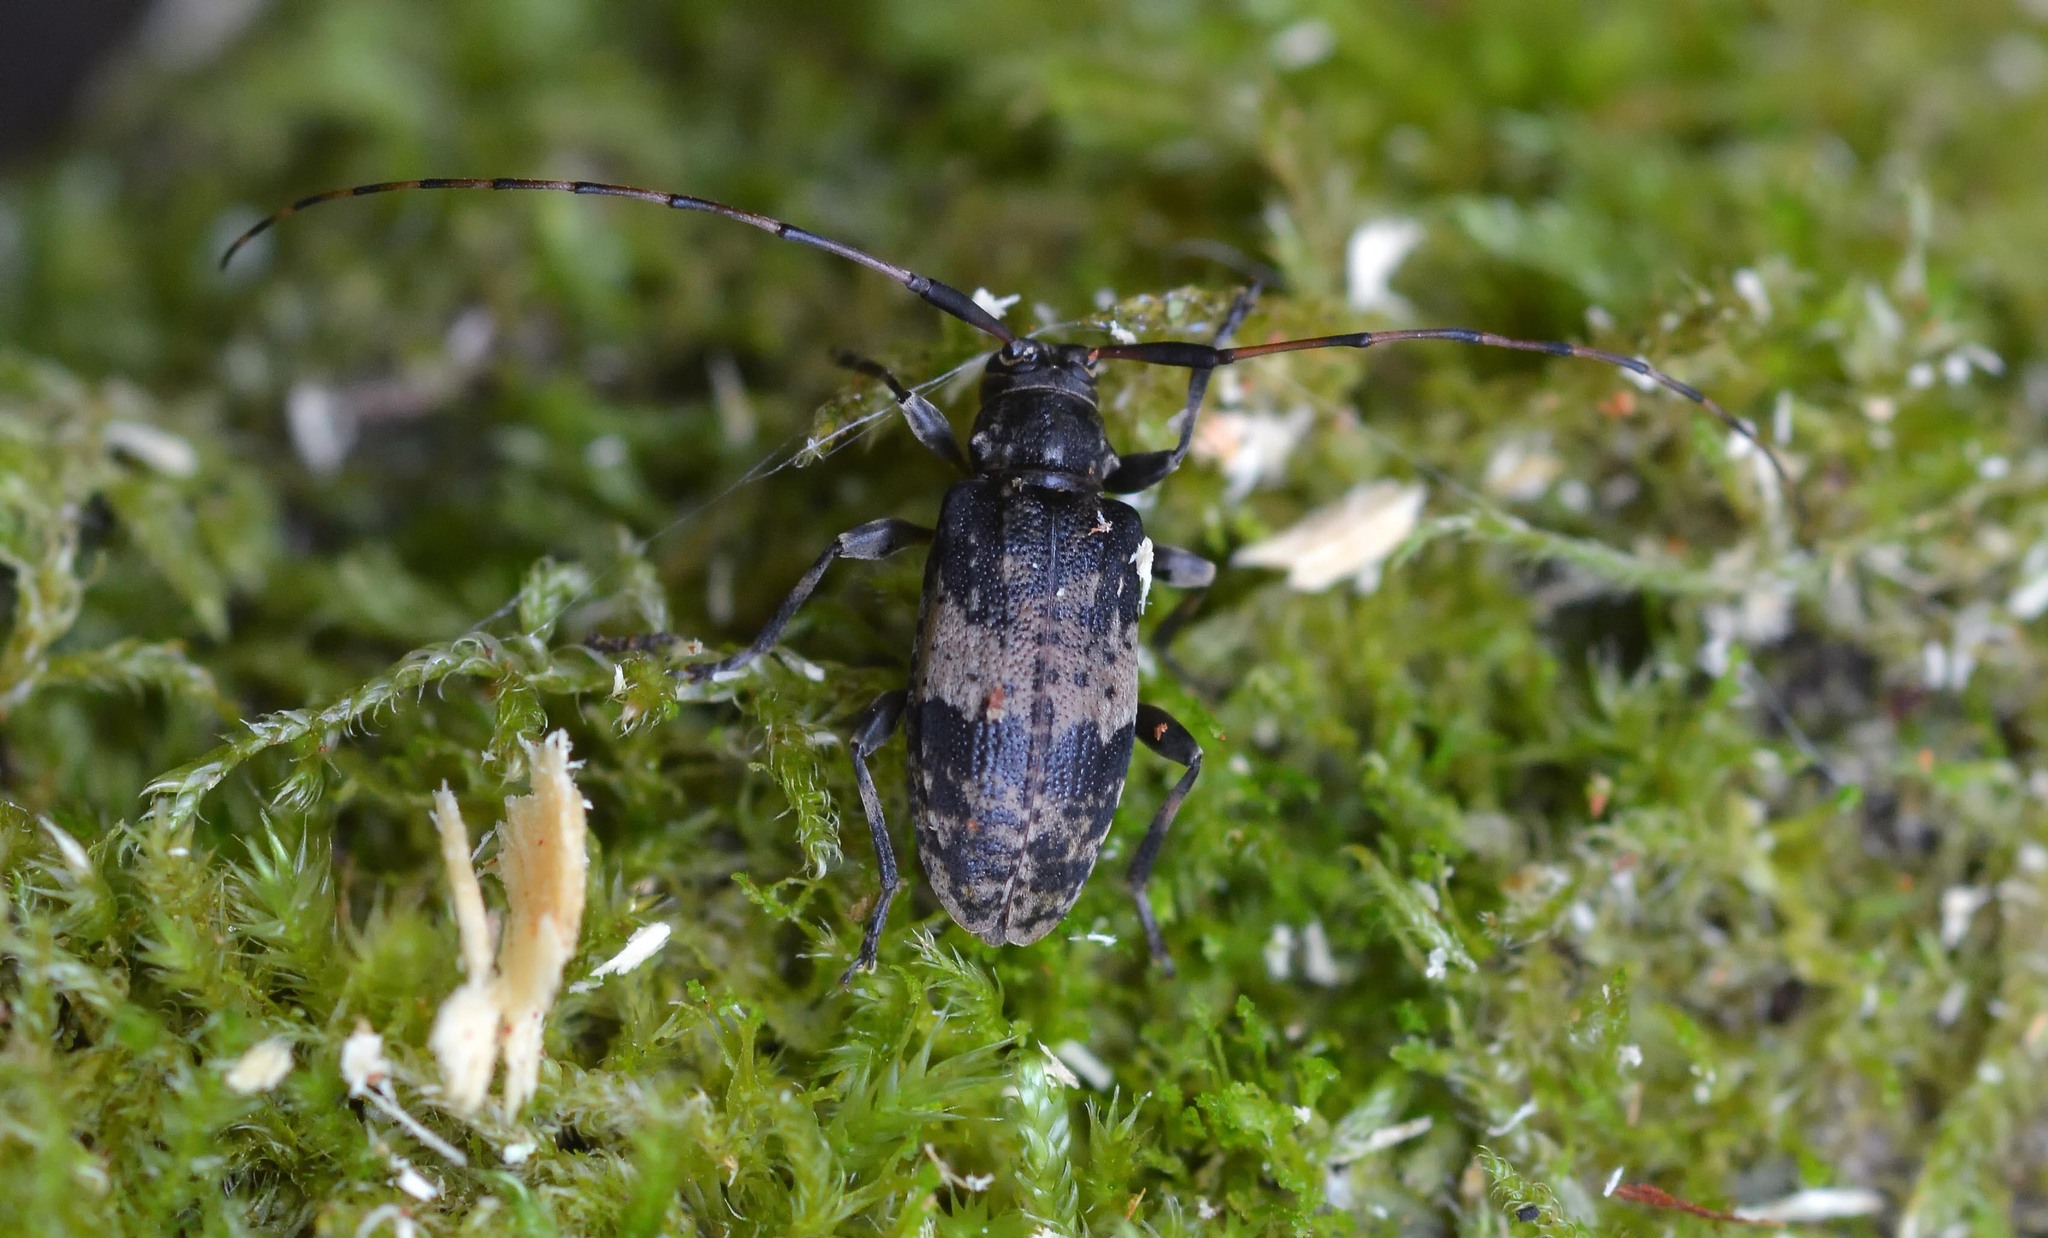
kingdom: Animalia
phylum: Arthropoda
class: Insecta
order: Coleoptera
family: Cerambycidae
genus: Leiopus
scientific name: Leiopus linnei
